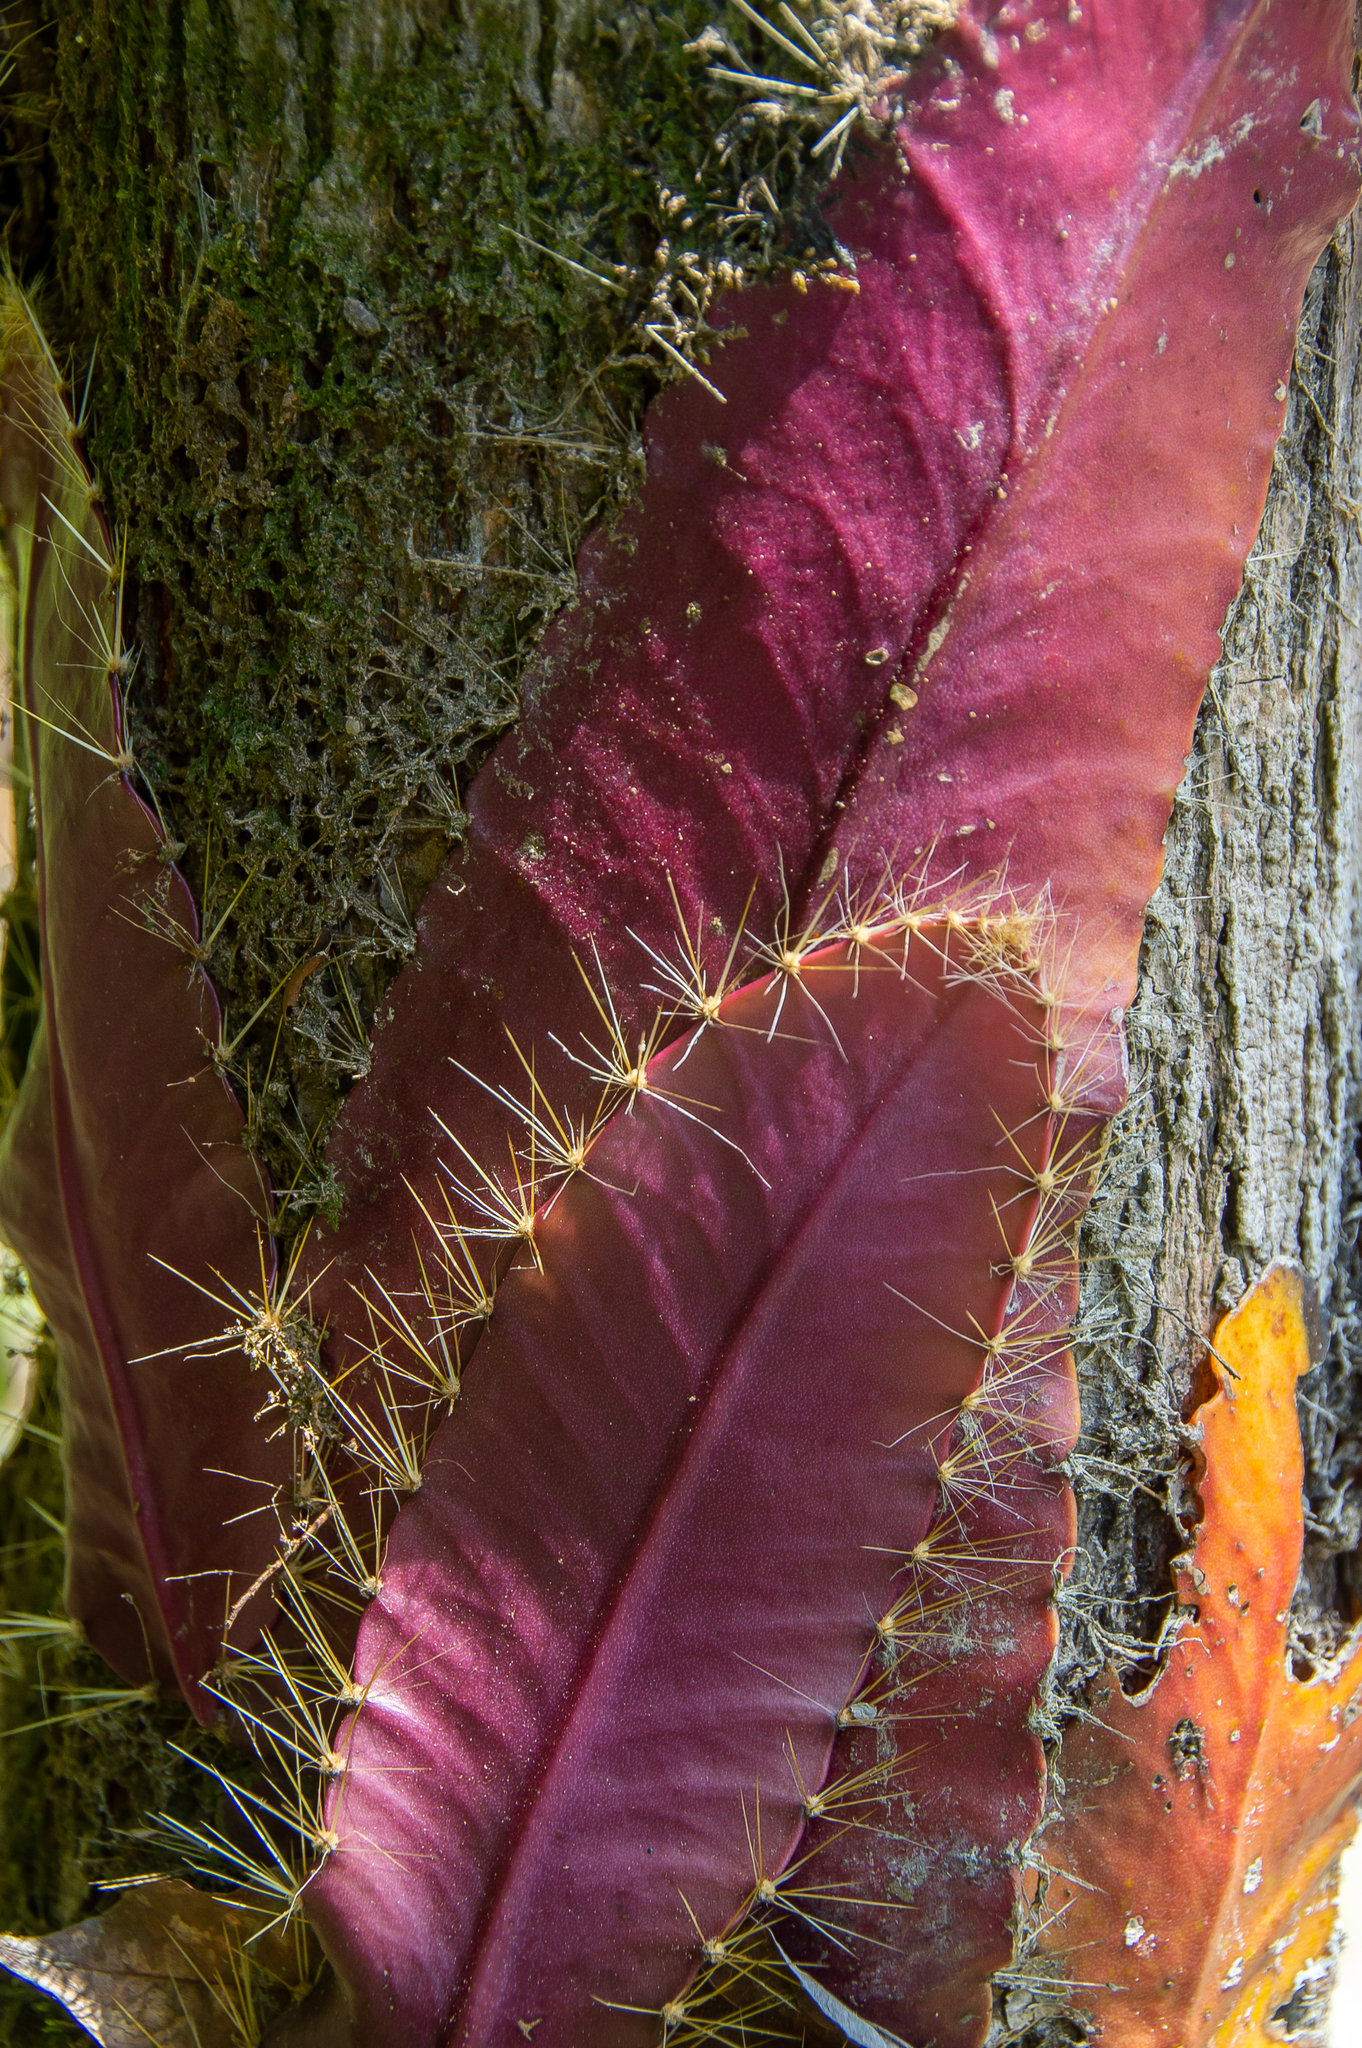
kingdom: Plantae
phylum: Tracheophyta
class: Magnoliopsida
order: Caryophyllales
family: Cactaceae
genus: Strophocactus
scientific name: Strophocactus wittii
